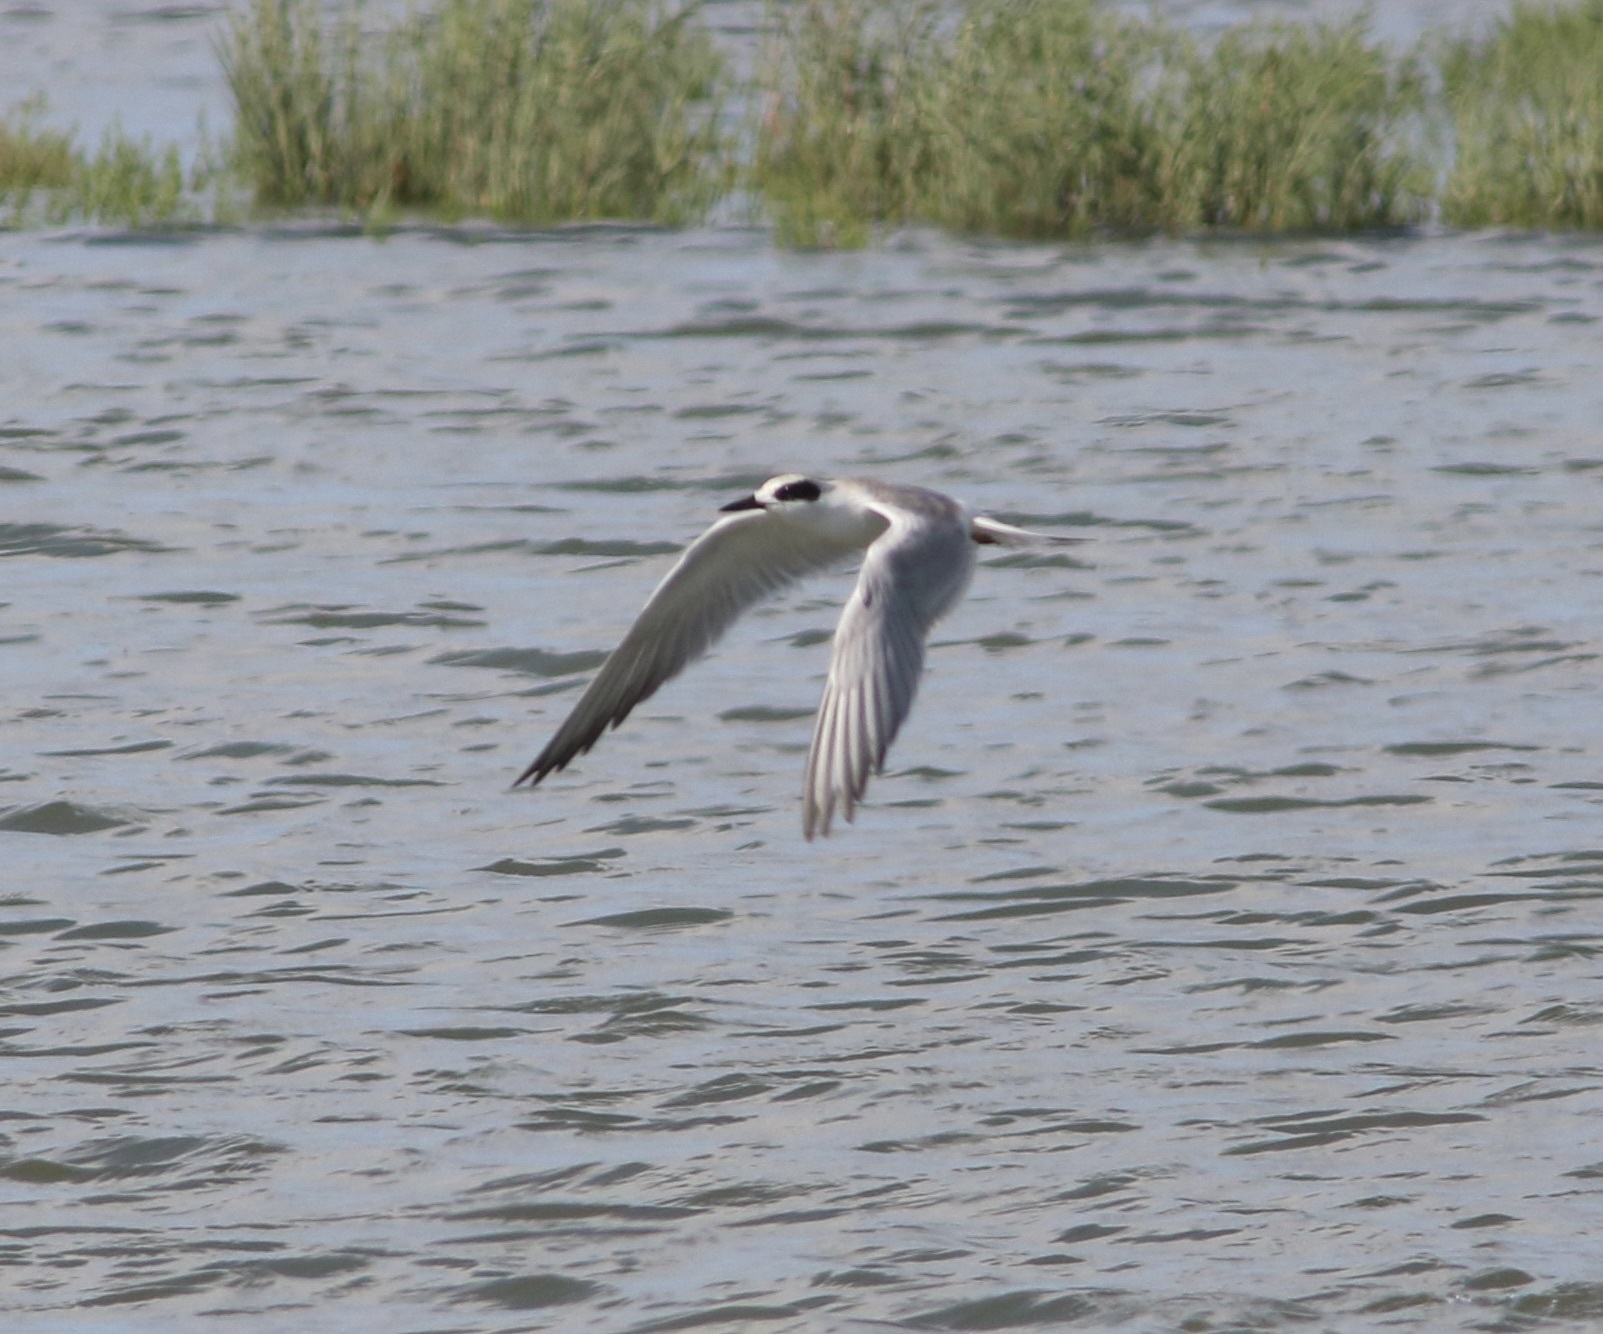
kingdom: Animalia
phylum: Chordata
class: Aves
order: Charadriiformes
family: Laridae
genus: Sterna
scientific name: Sterna forsteri
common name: Forster's tern
